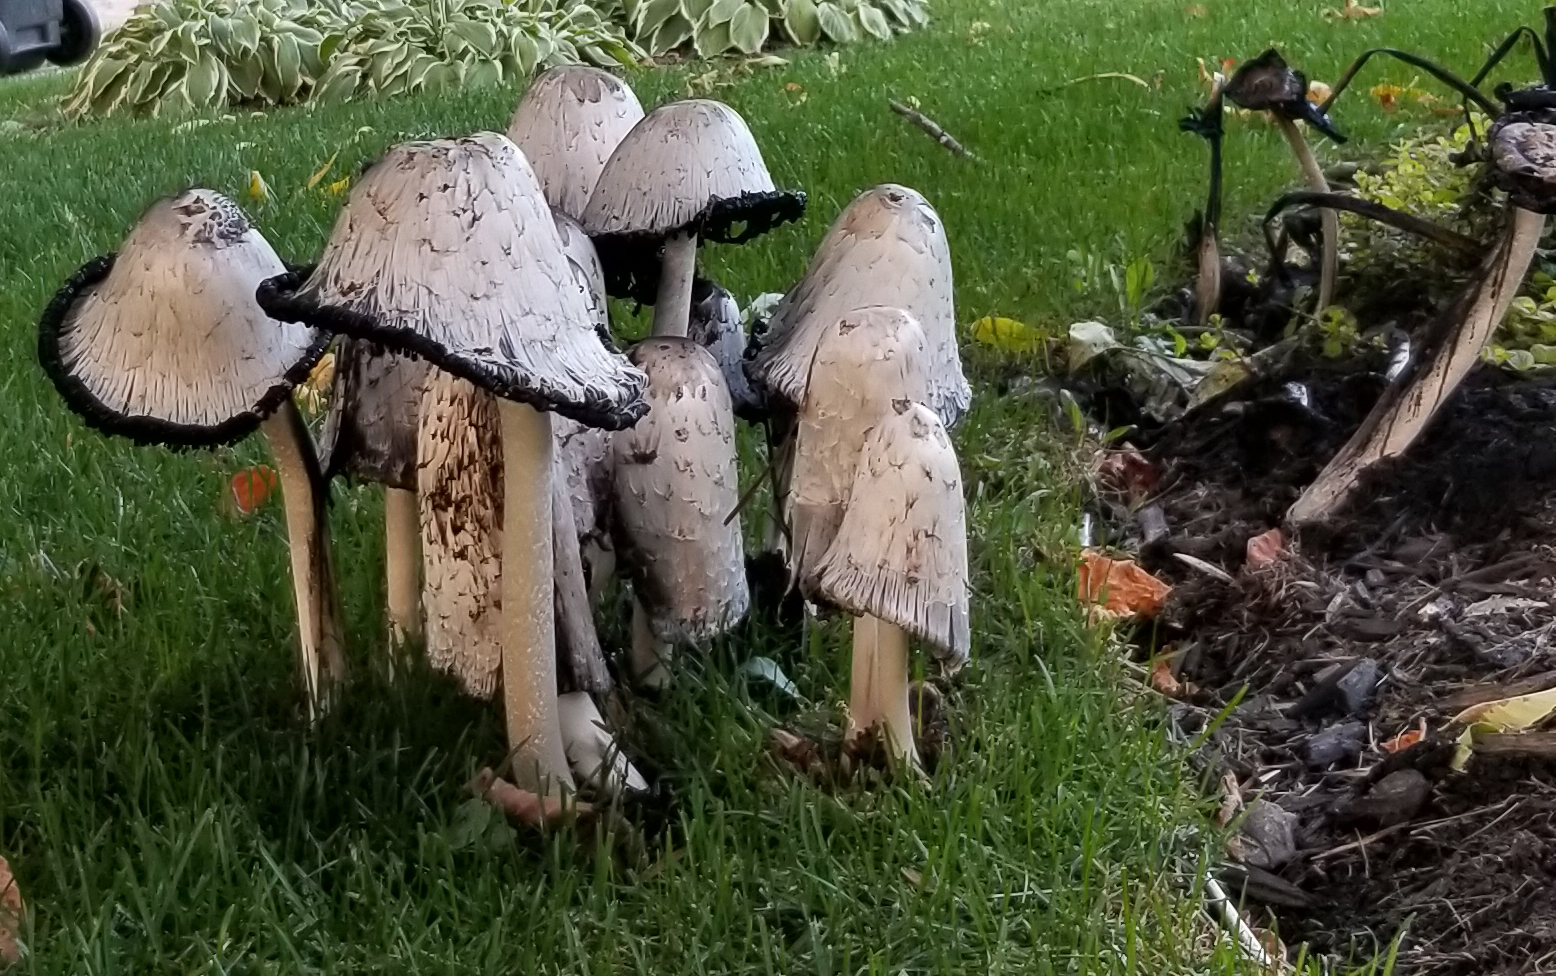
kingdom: Fungi
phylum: Basidiomycota
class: Agaricomycetes
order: Agaricales
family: Agaricaceae
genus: Coprinus
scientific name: Coprinus comatus
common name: Lawyer's wig
